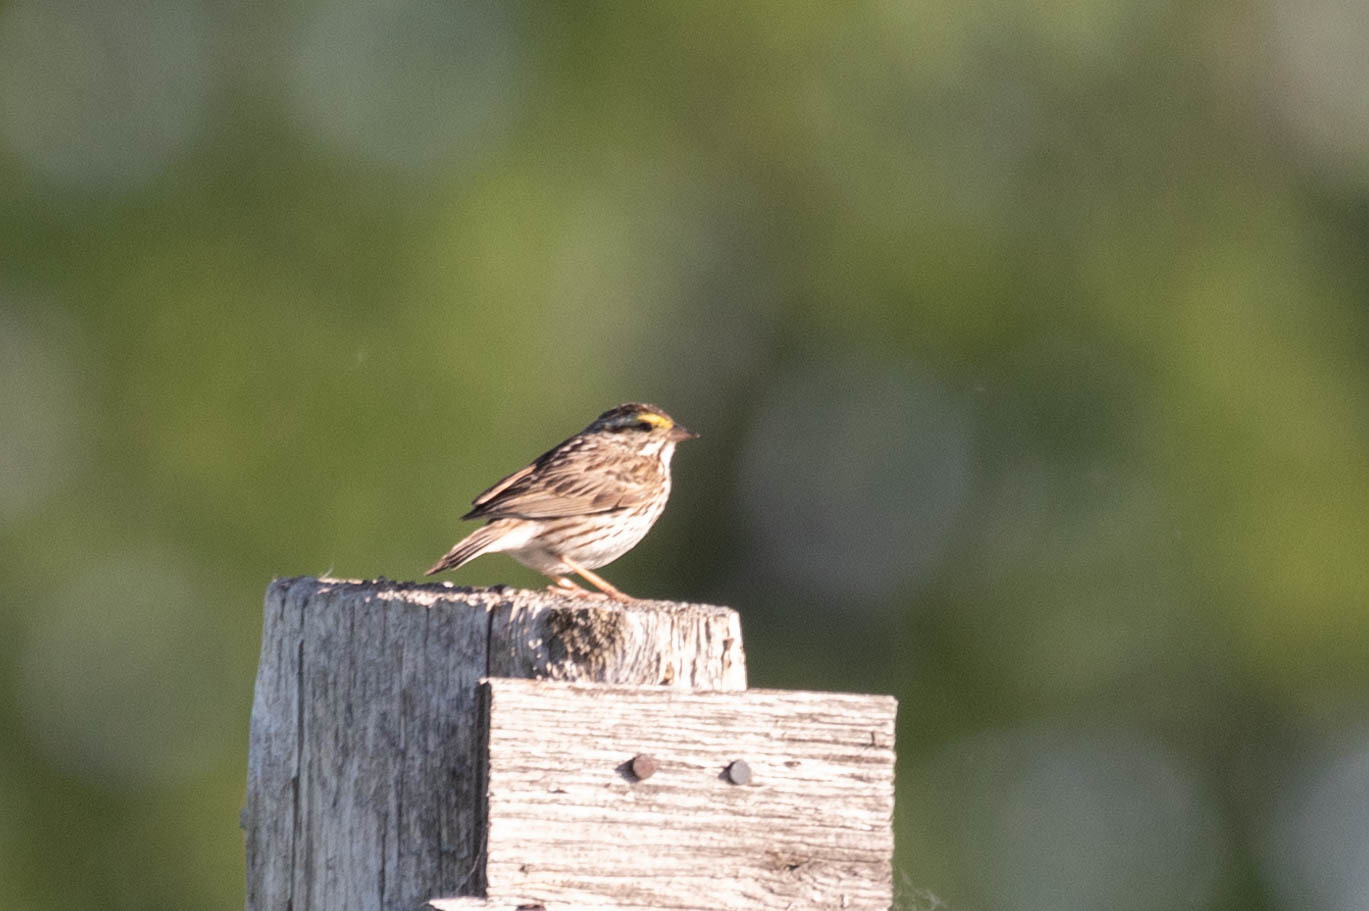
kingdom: Animalia
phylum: Chordata
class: Aves
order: Passeriformes
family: Passerellidae
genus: Passerculus
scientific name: Passerculus sandwichensis
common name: Savannah sparrow
